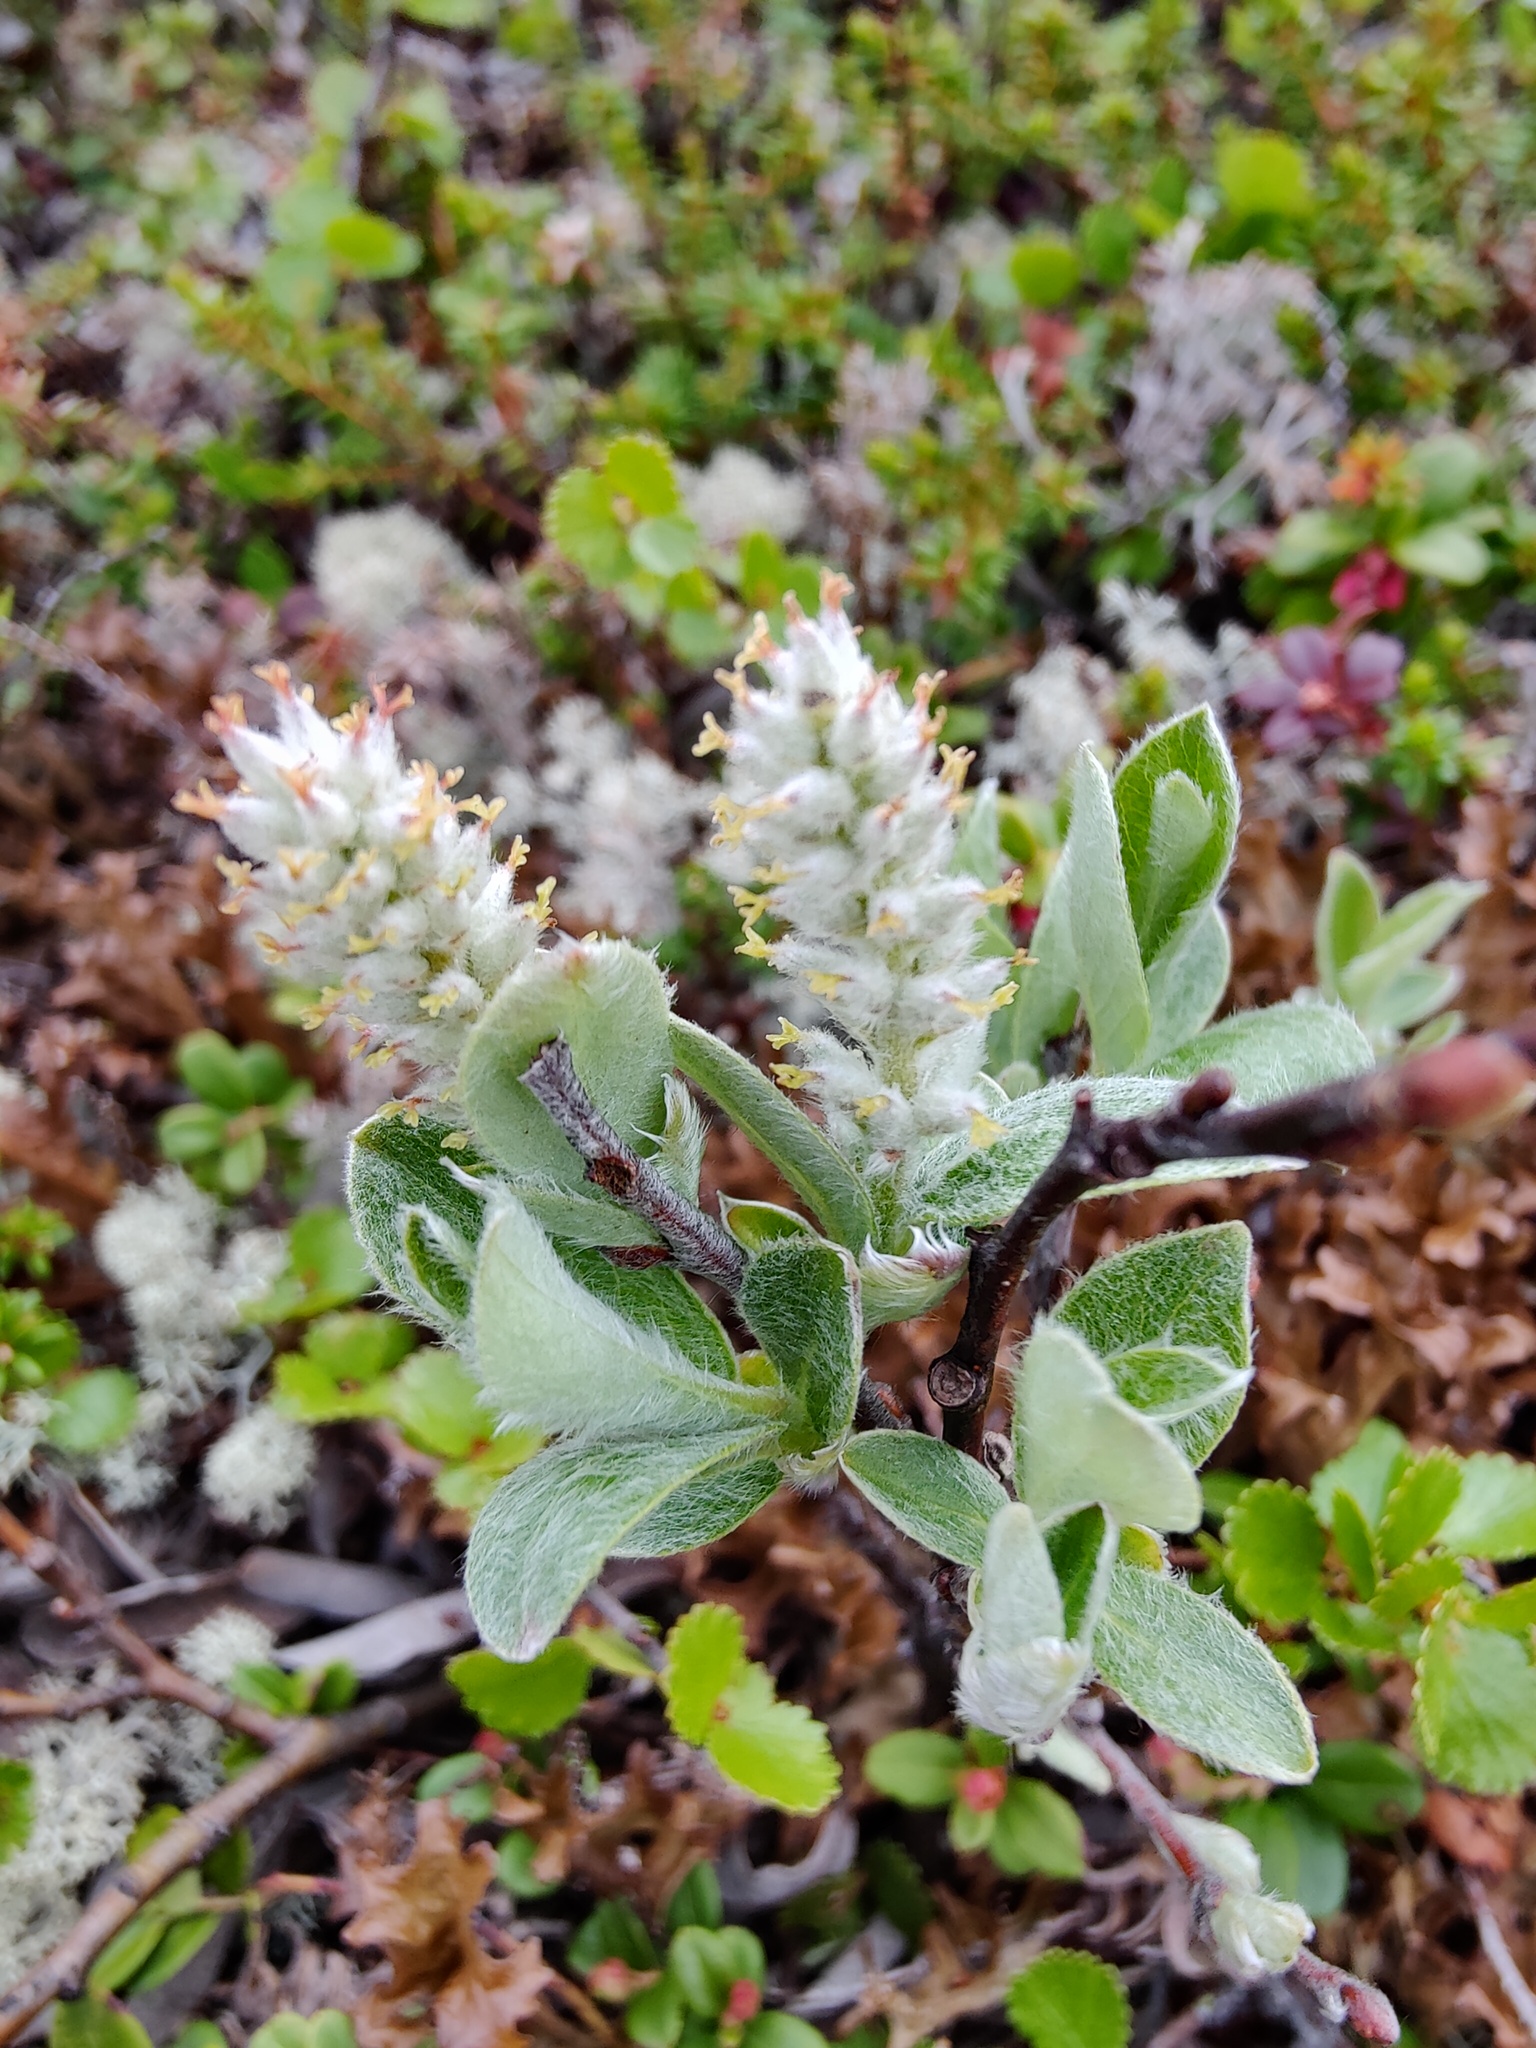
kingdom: Plantae
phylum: Tracheophyta
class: Magnoliopsida
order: Malpighiales
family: Salicaceae
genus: Salix
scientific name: Salix glauca
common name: Glaucous willow
